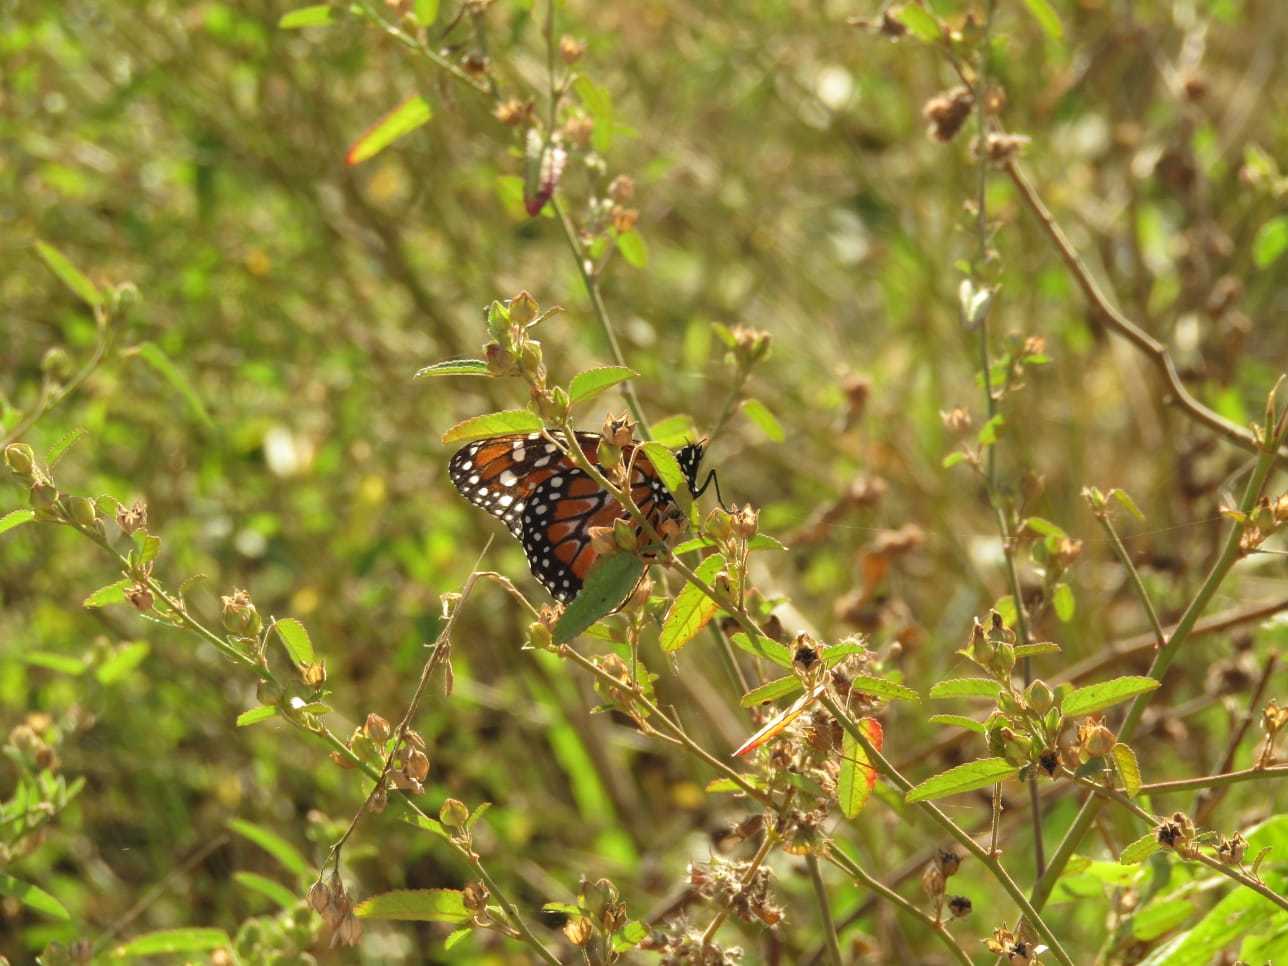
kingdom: Animalia
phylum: Arthropoda
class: Insecta
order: Lepidoptera
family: Nymphalidae
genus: Danaus
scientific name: Danaus erippus
